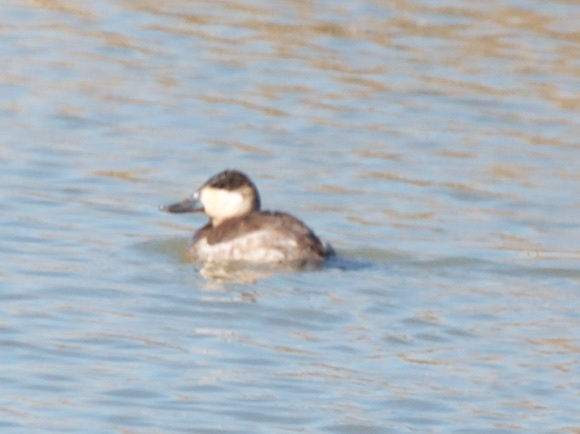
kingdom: Animalia
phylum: Chordata
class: Aves
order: Anseriformes
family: Anatidae
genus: Oxyura
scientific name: Oxyura jamaicensis
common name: Ruddy duck
